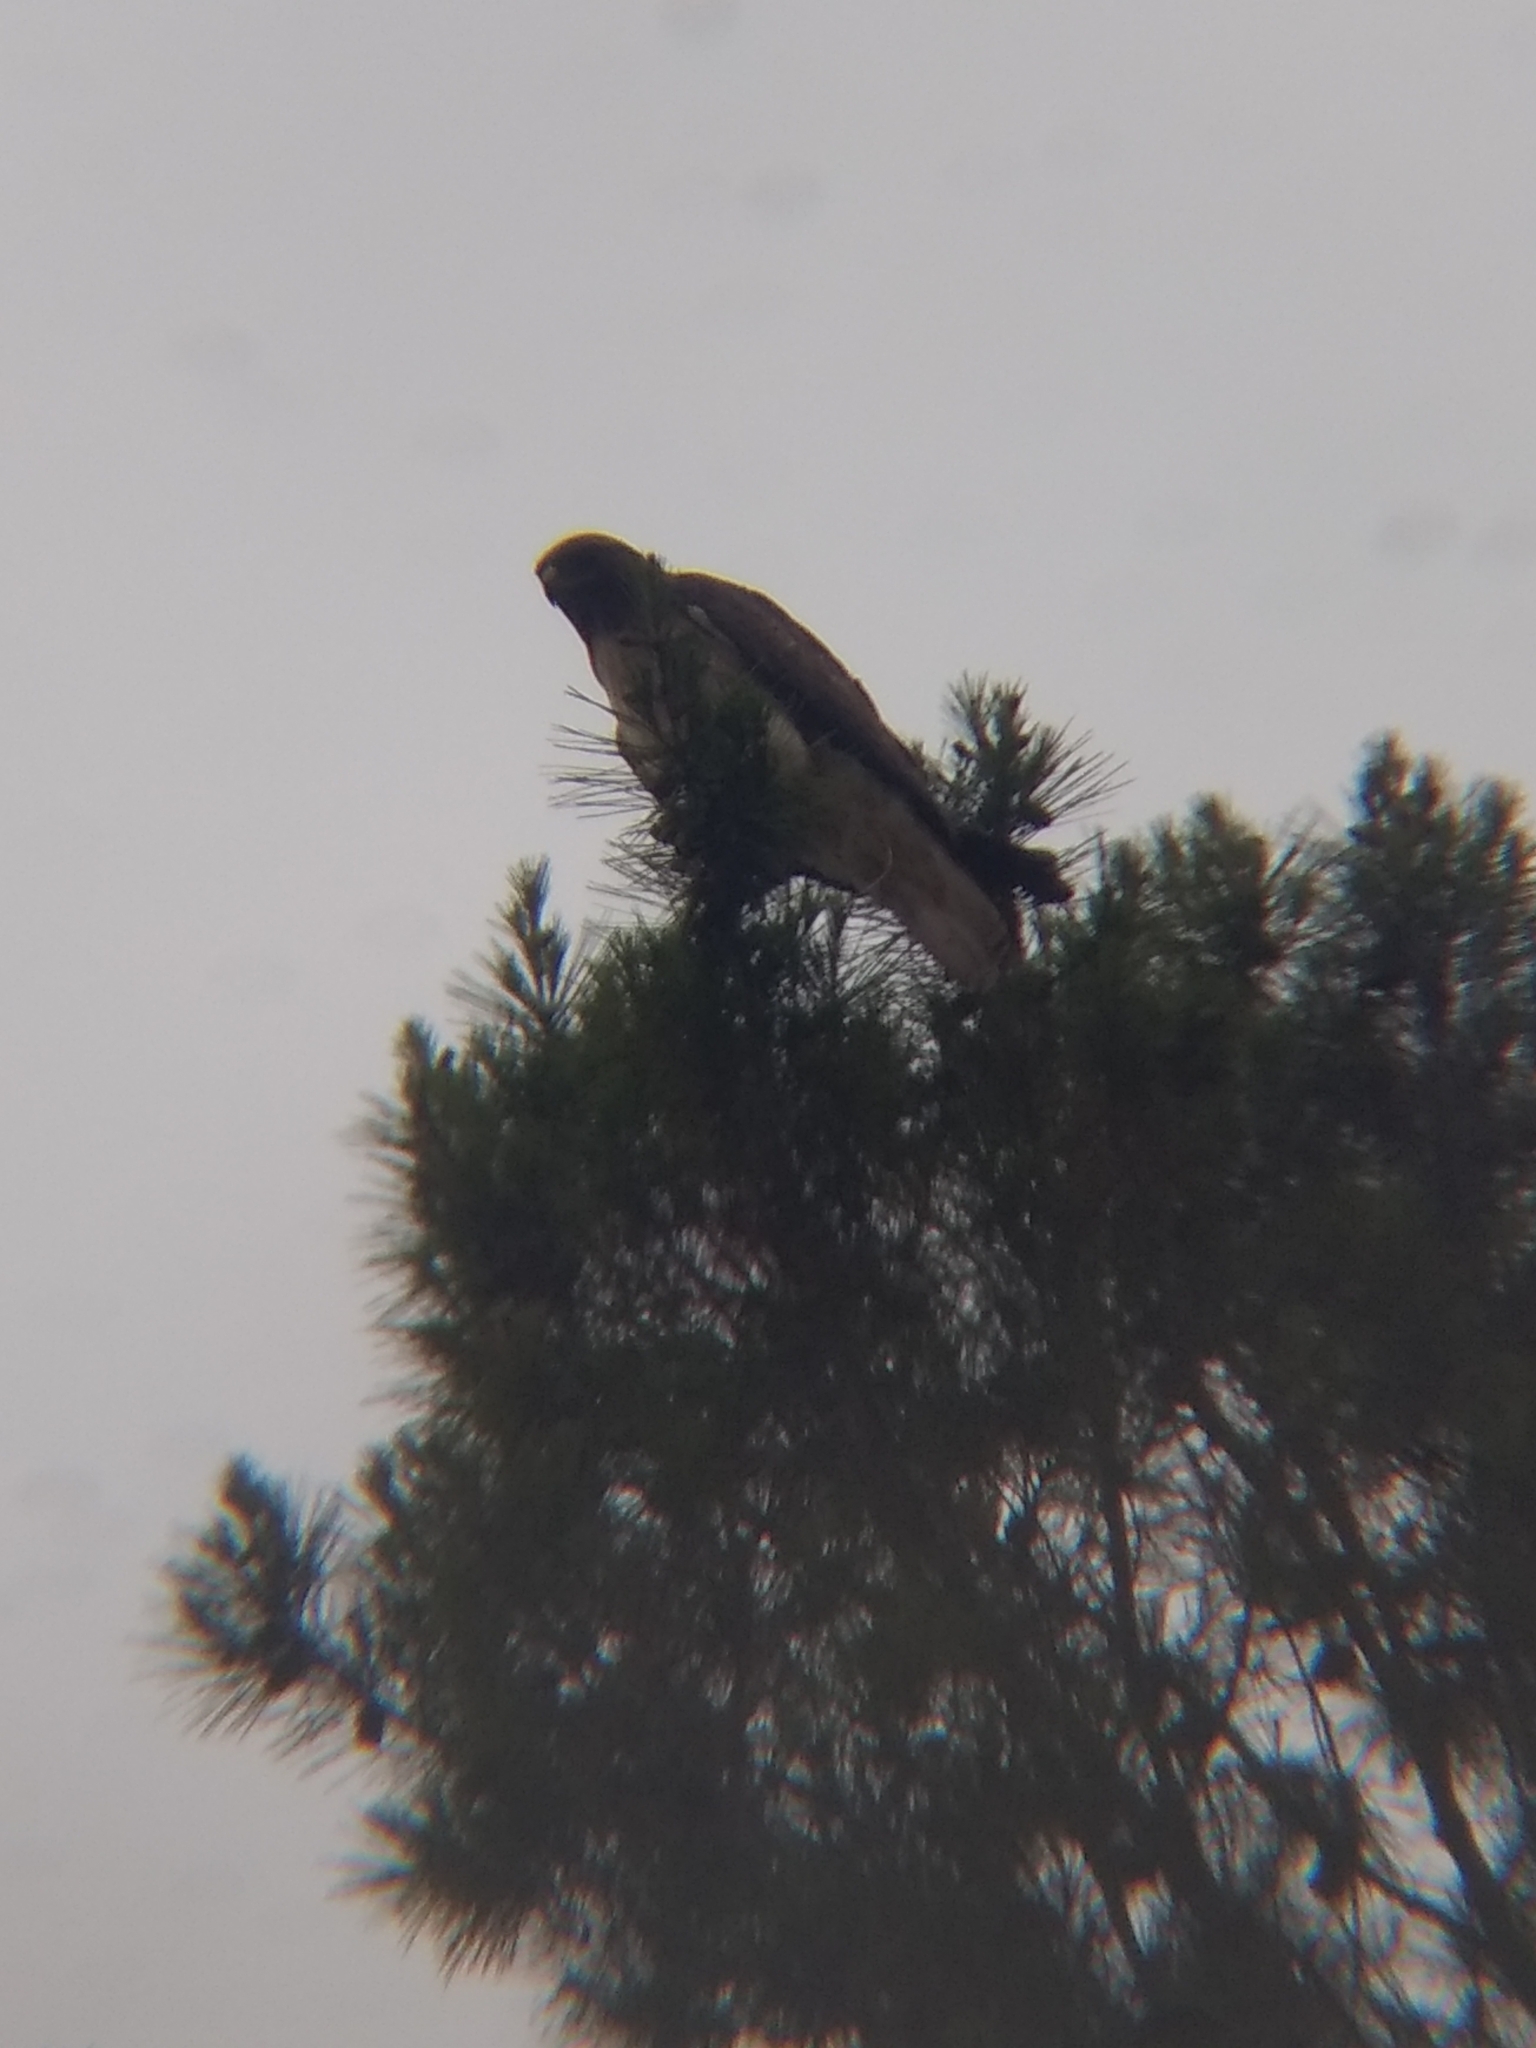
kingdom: Animalia
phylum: Chordata
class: Aves
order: Accipitriformes
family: Accipitridae
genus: Buteo
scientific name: Buteo jamaicensis
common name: Red-tailed hawk
